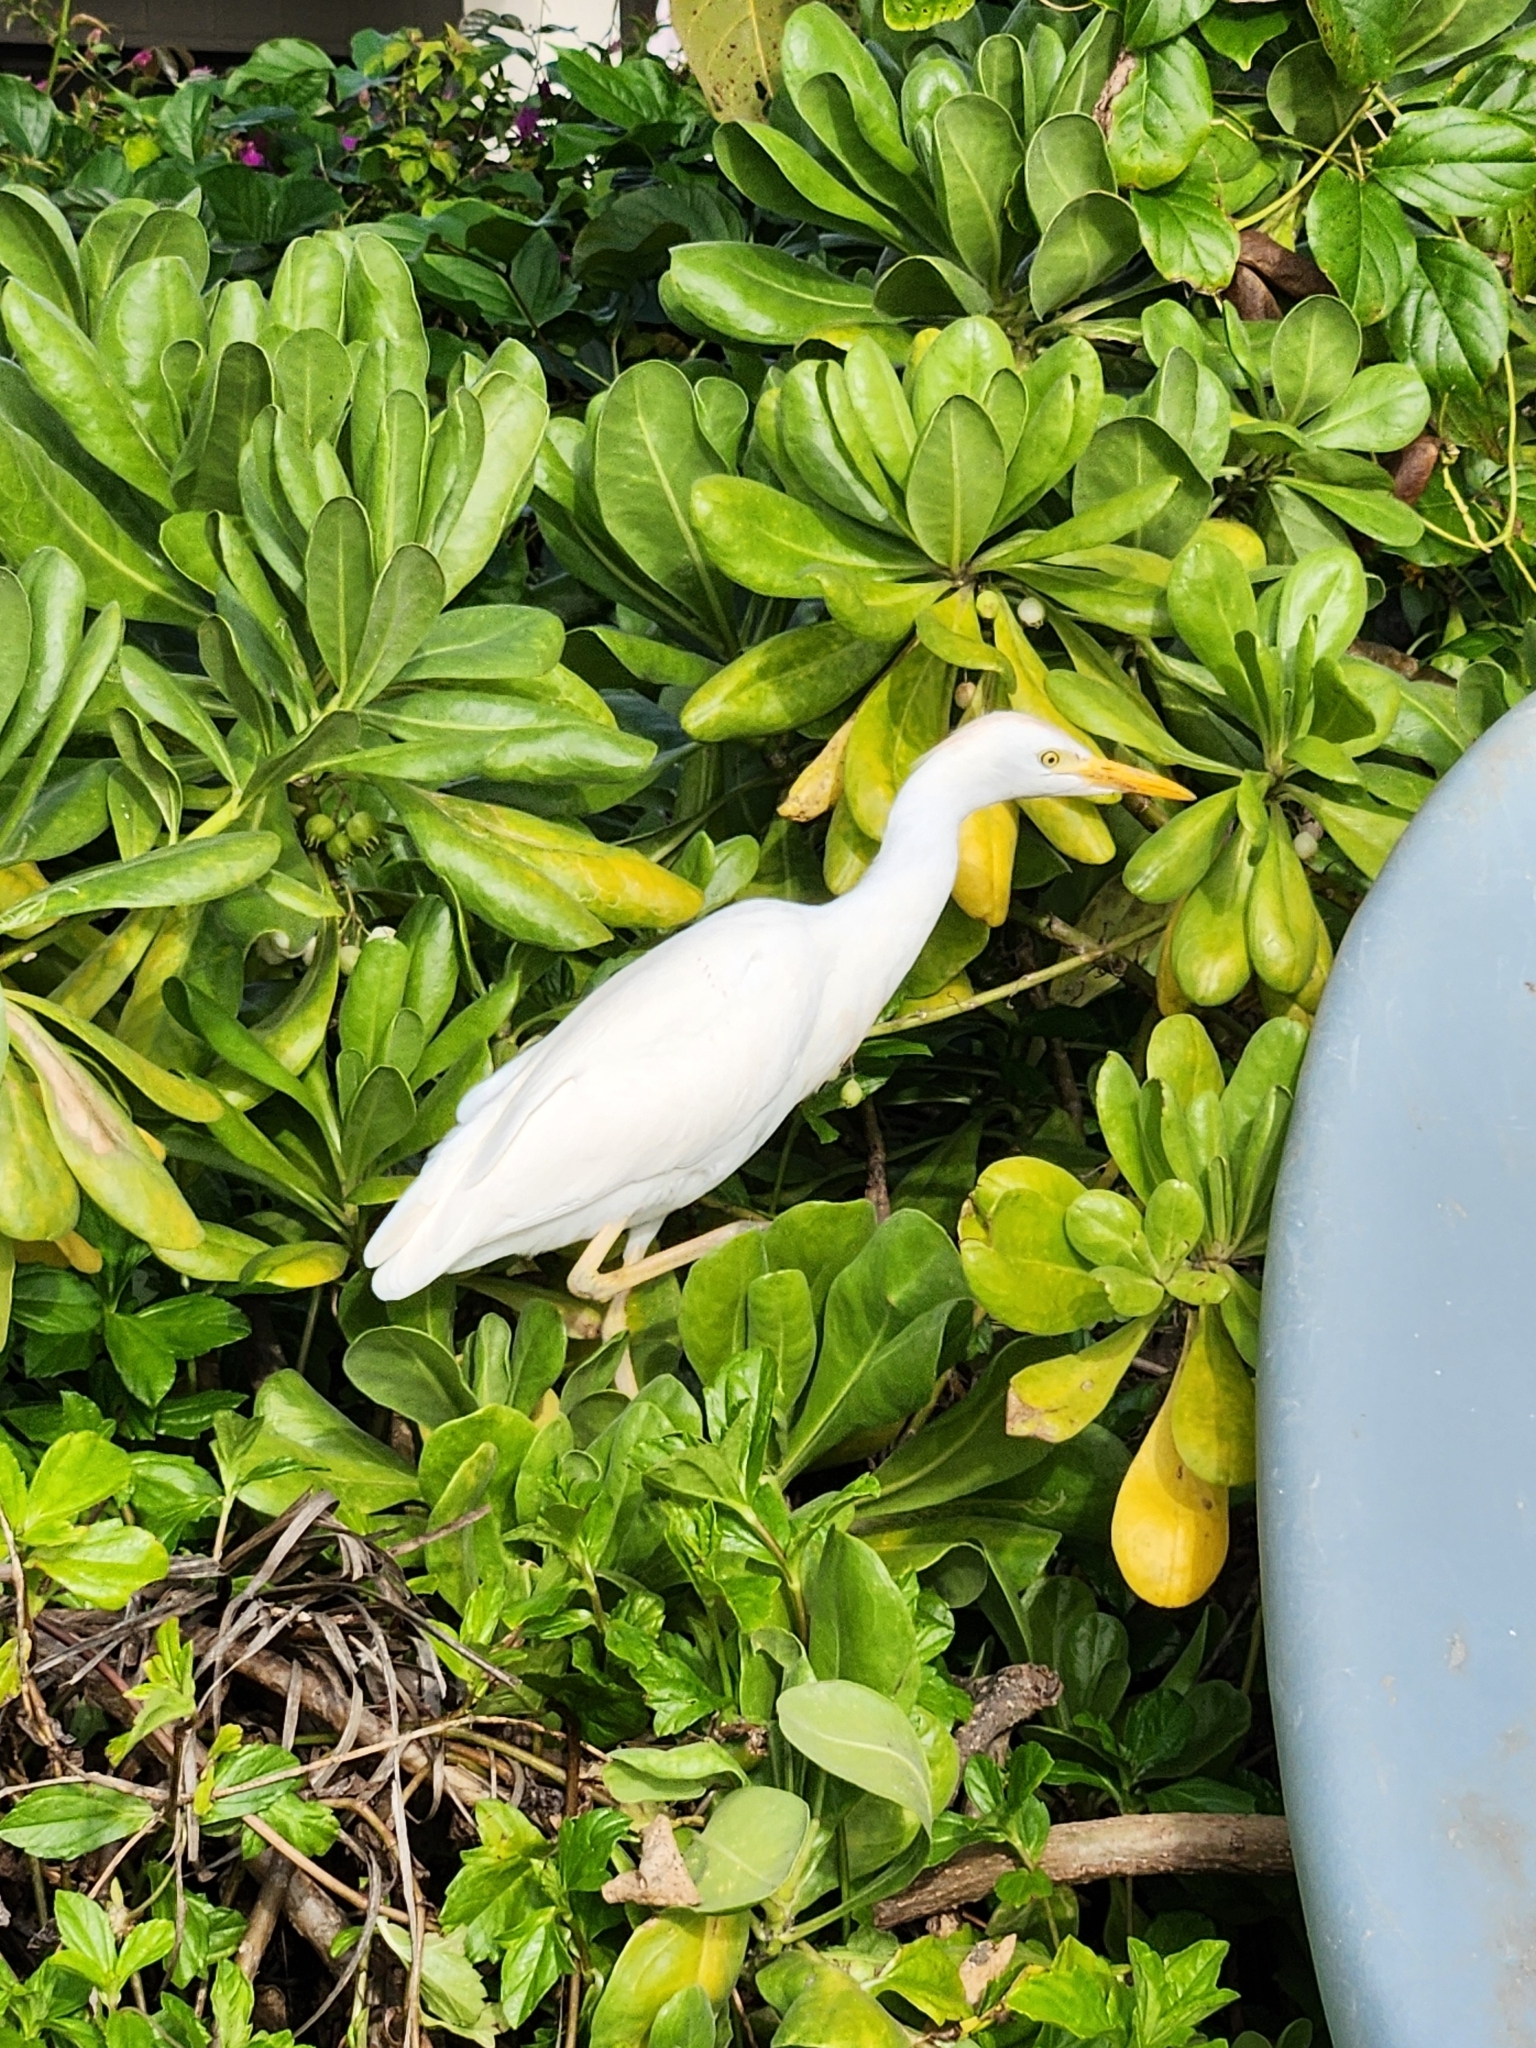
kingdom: Animalia
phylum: Chordata
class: Aves
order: Pelecaniformes
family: Ardeidae
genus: Bubulcus
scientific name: Bubulcus ibis
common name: Cattle egret
